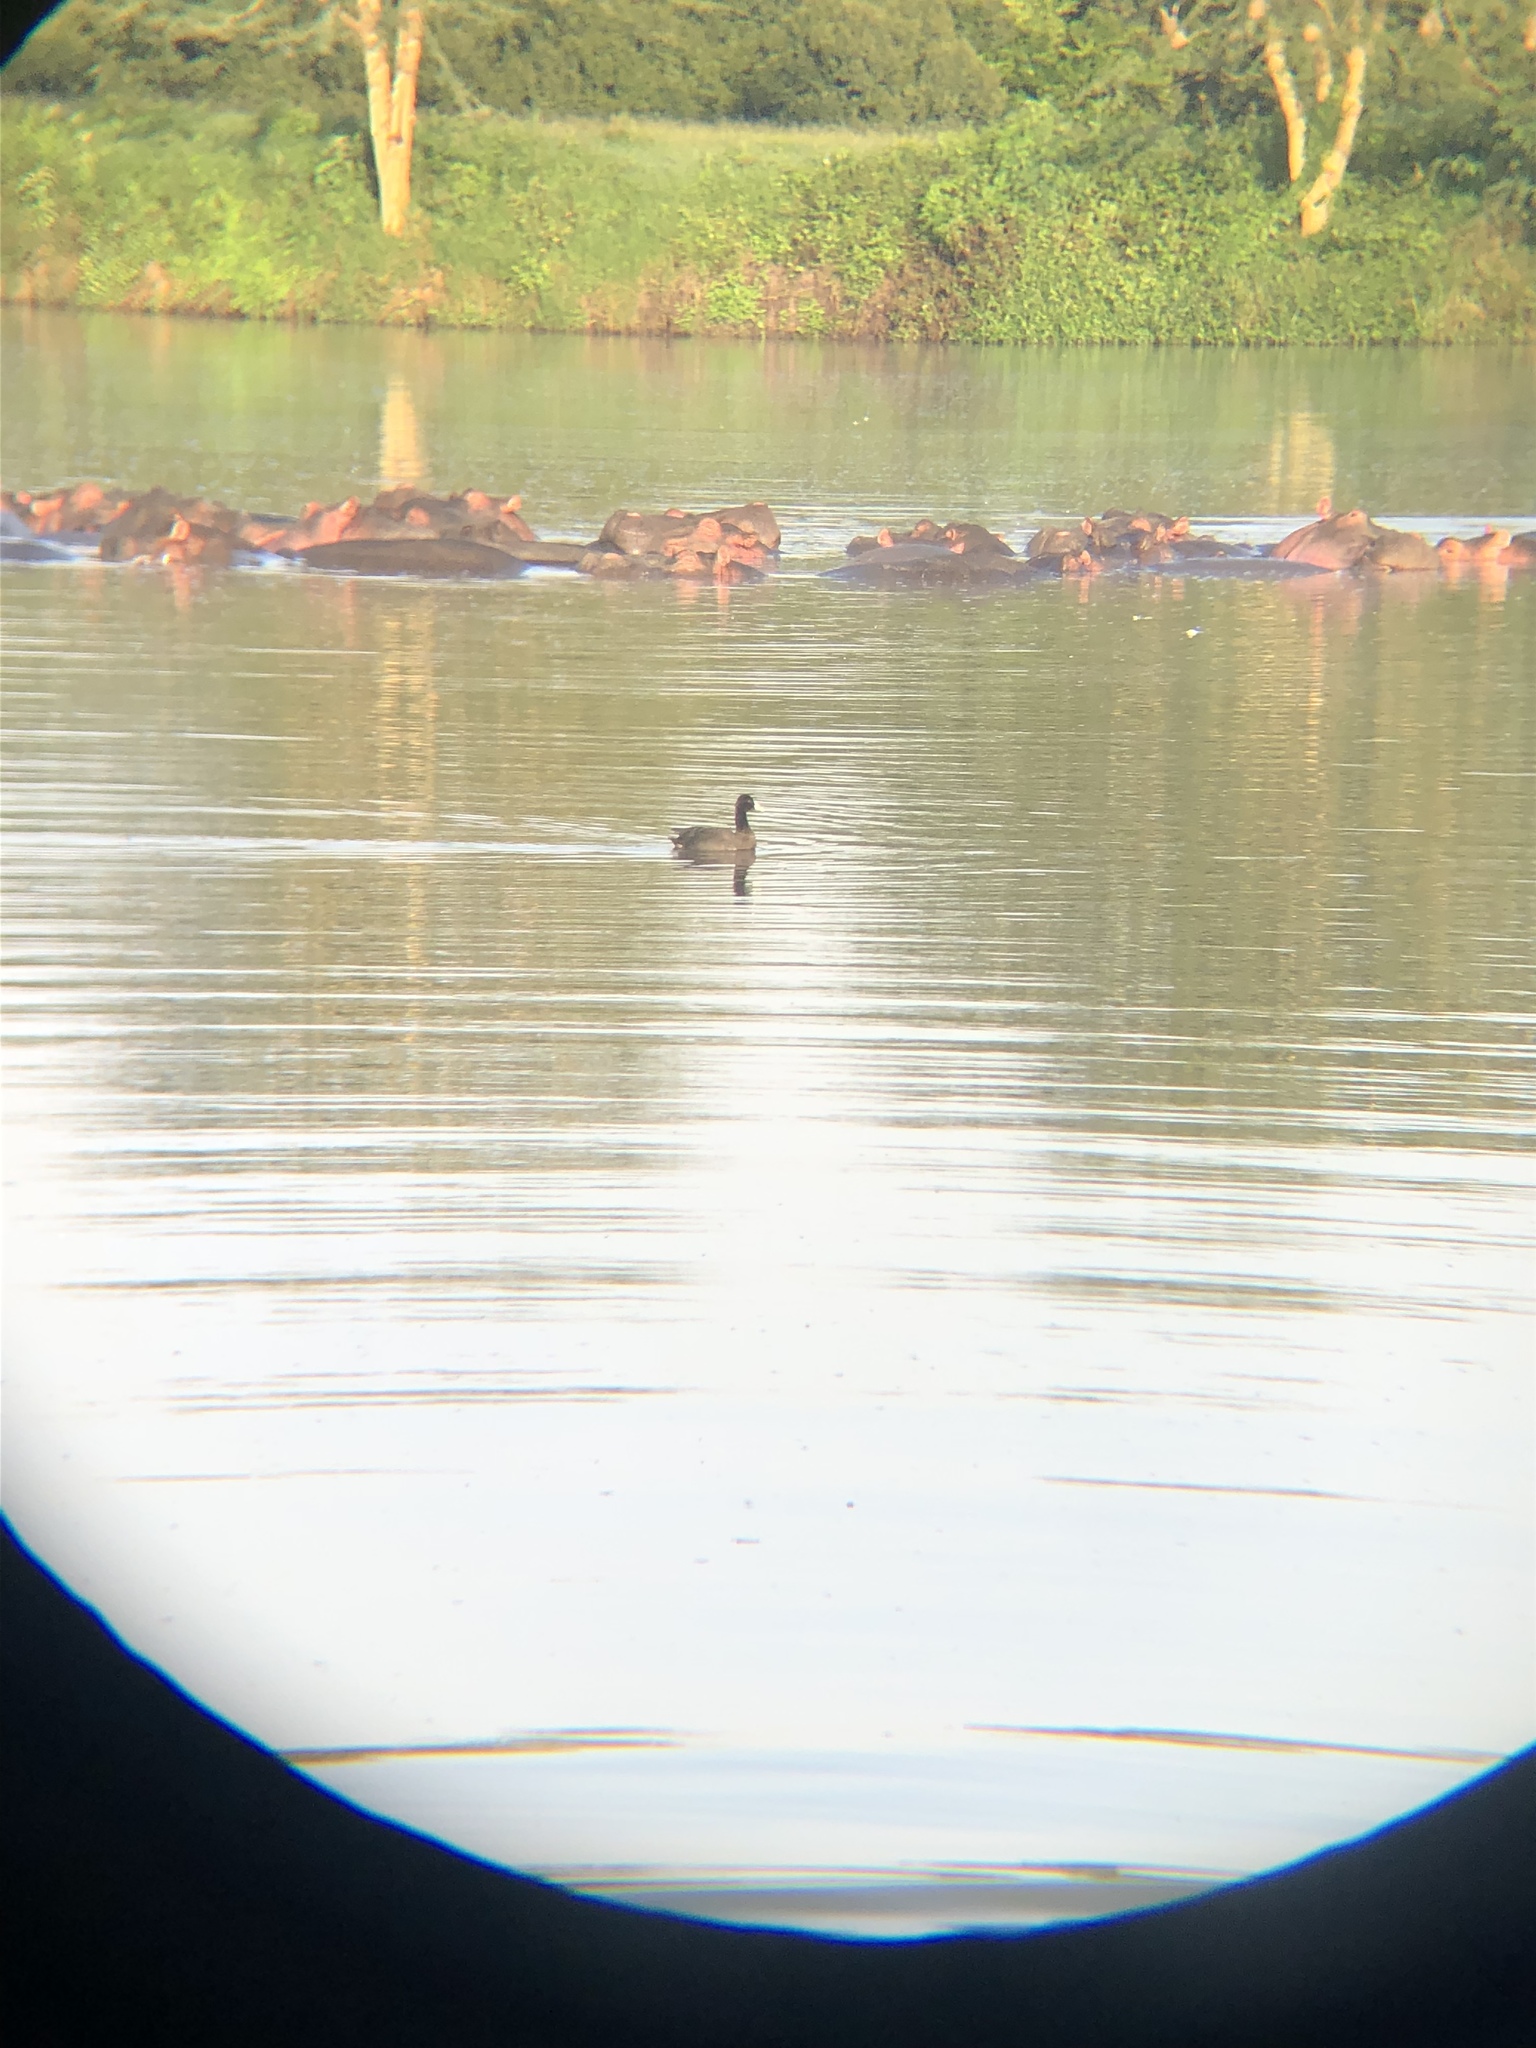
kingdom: Animalia
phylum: Chordata
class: Aves
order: Gruiformes
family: Rallidae
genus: Fulica
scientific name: Fulica cristata
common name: Red-knobbed coot
